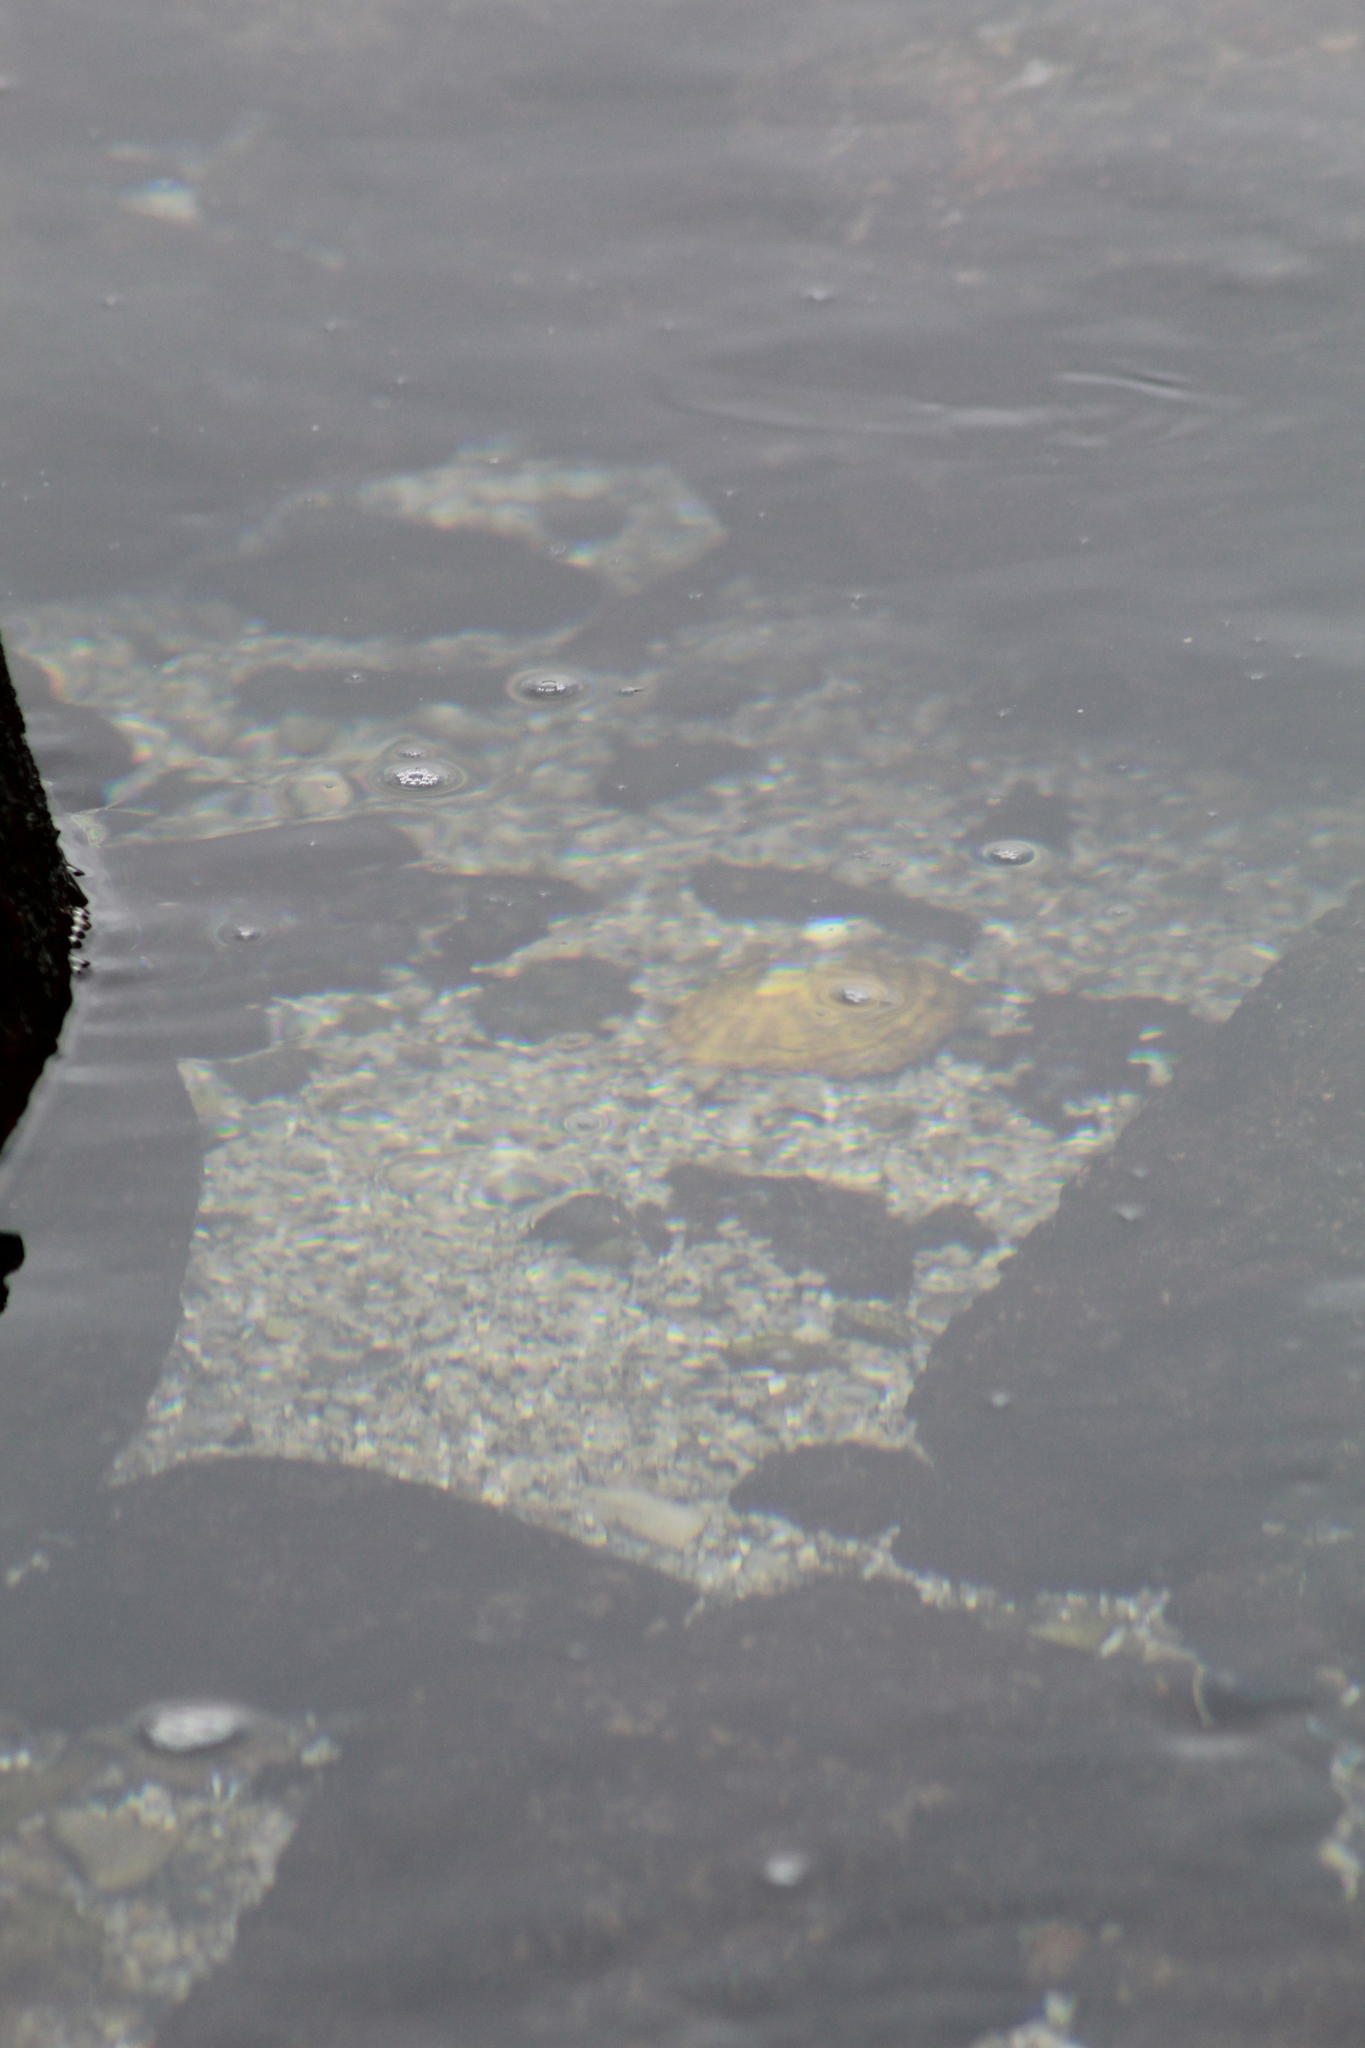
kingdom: Animalia
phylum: Mollusca
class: Gastropoda
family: Lottiidae
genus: Scurria
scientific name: Scurria viridula
